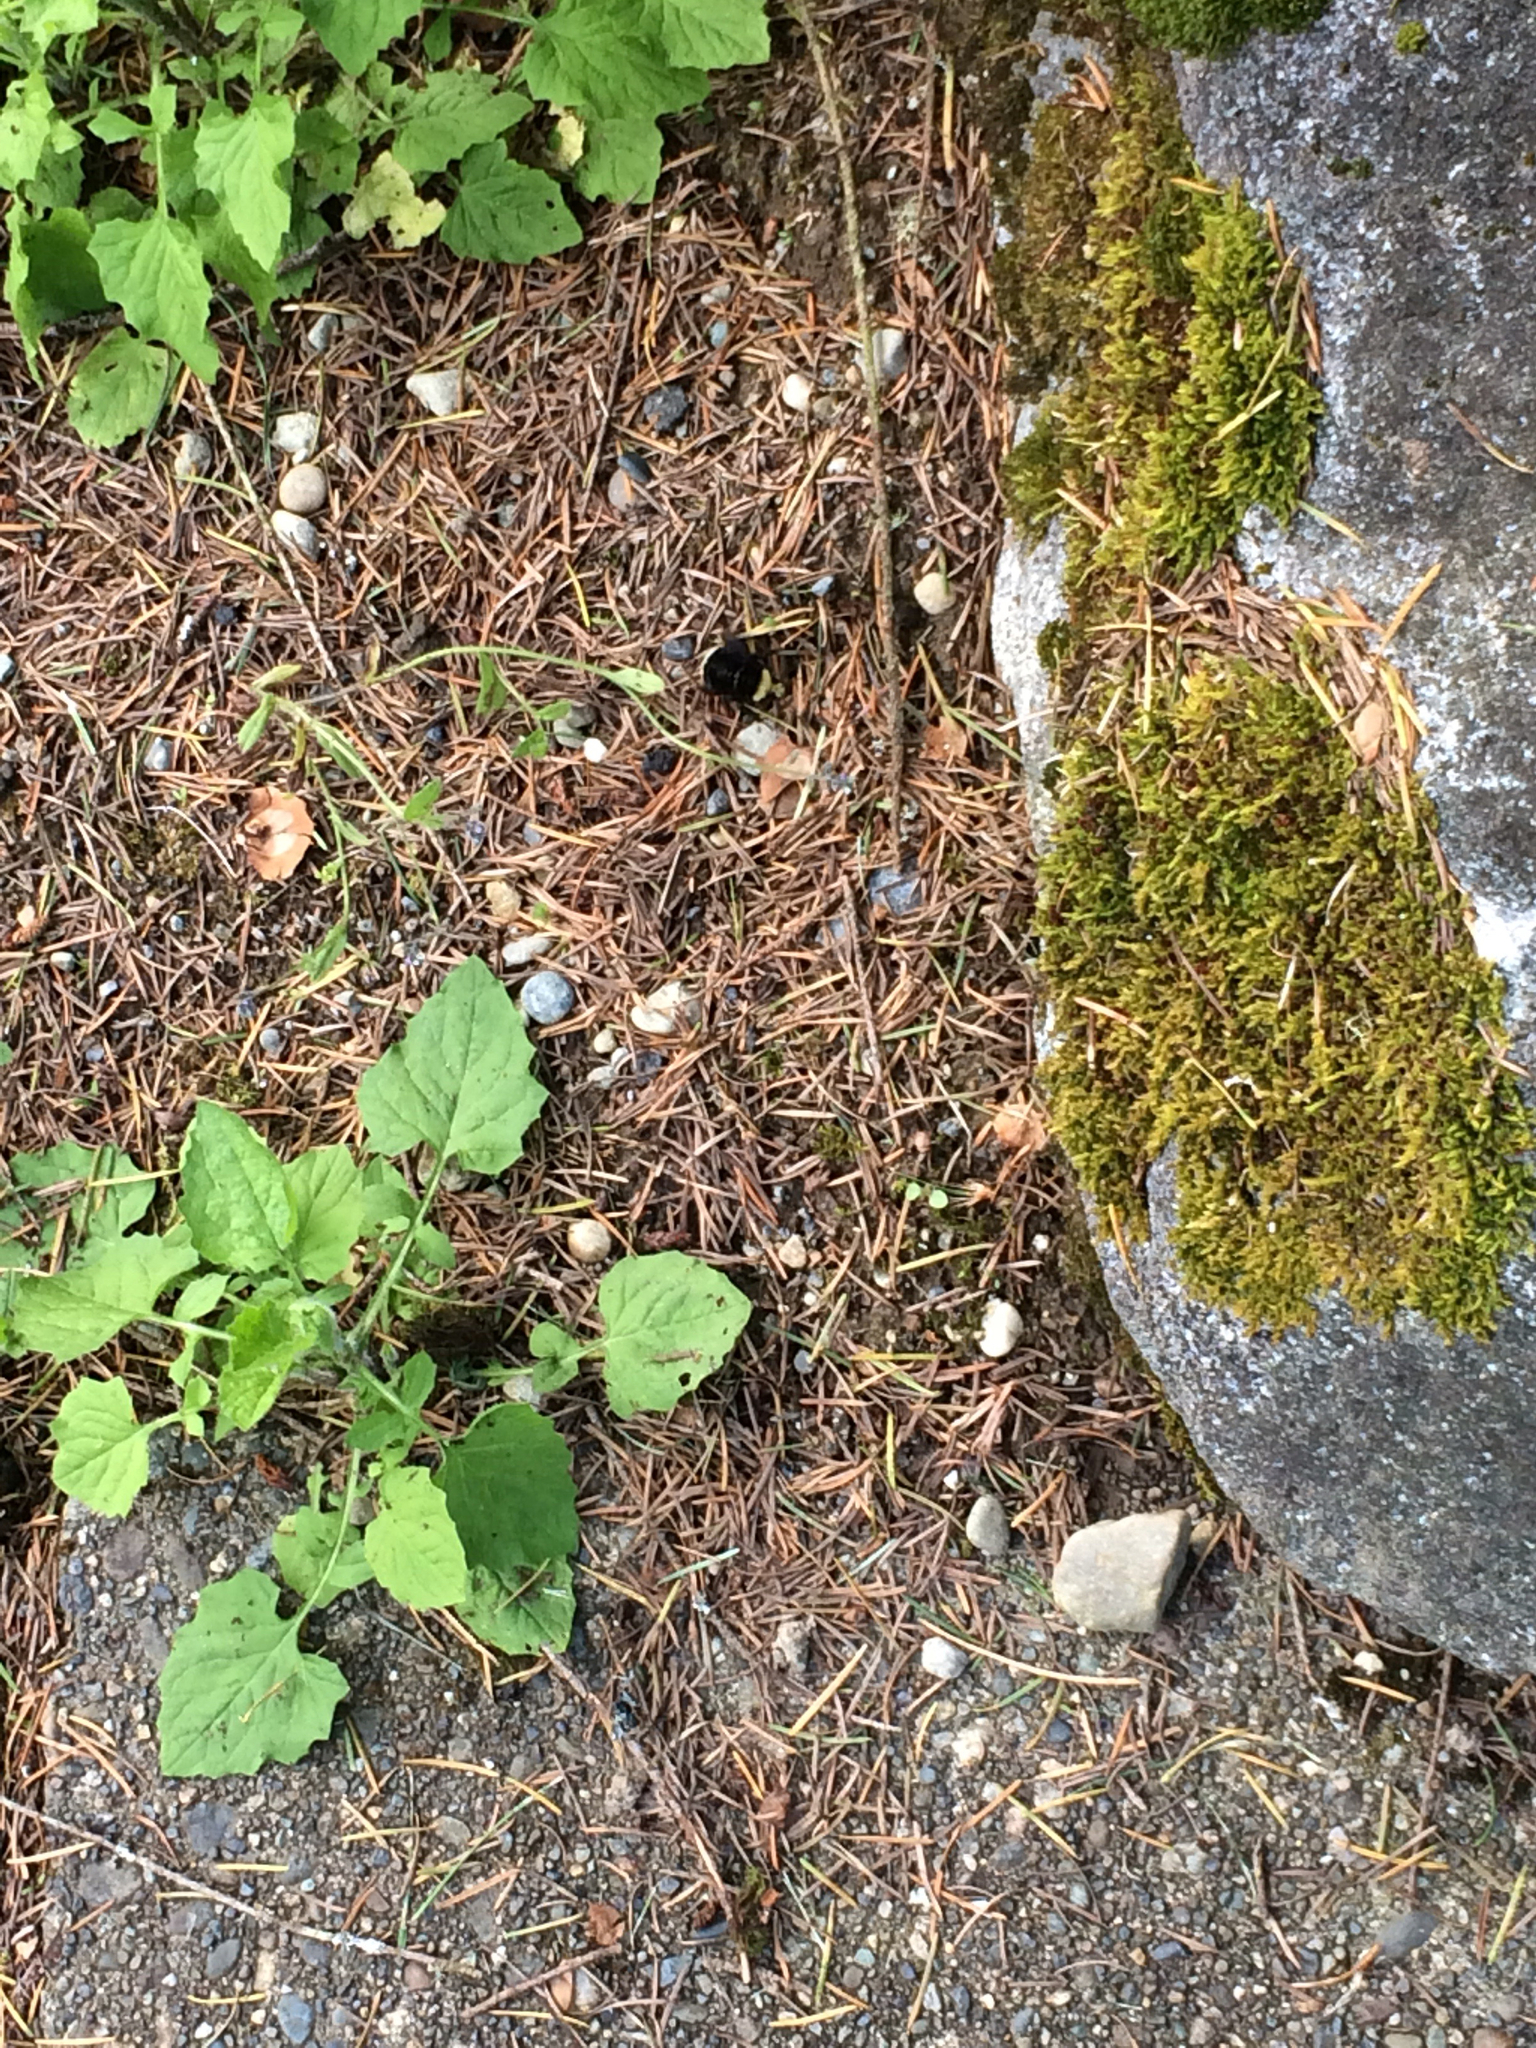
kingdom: Animalia
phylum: Arthropoda
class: Insecta
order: Hymenoptera
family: Apidae
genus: Bombus
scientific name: Bombus vosnesenskii
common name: Vosnesensky bumble bee
